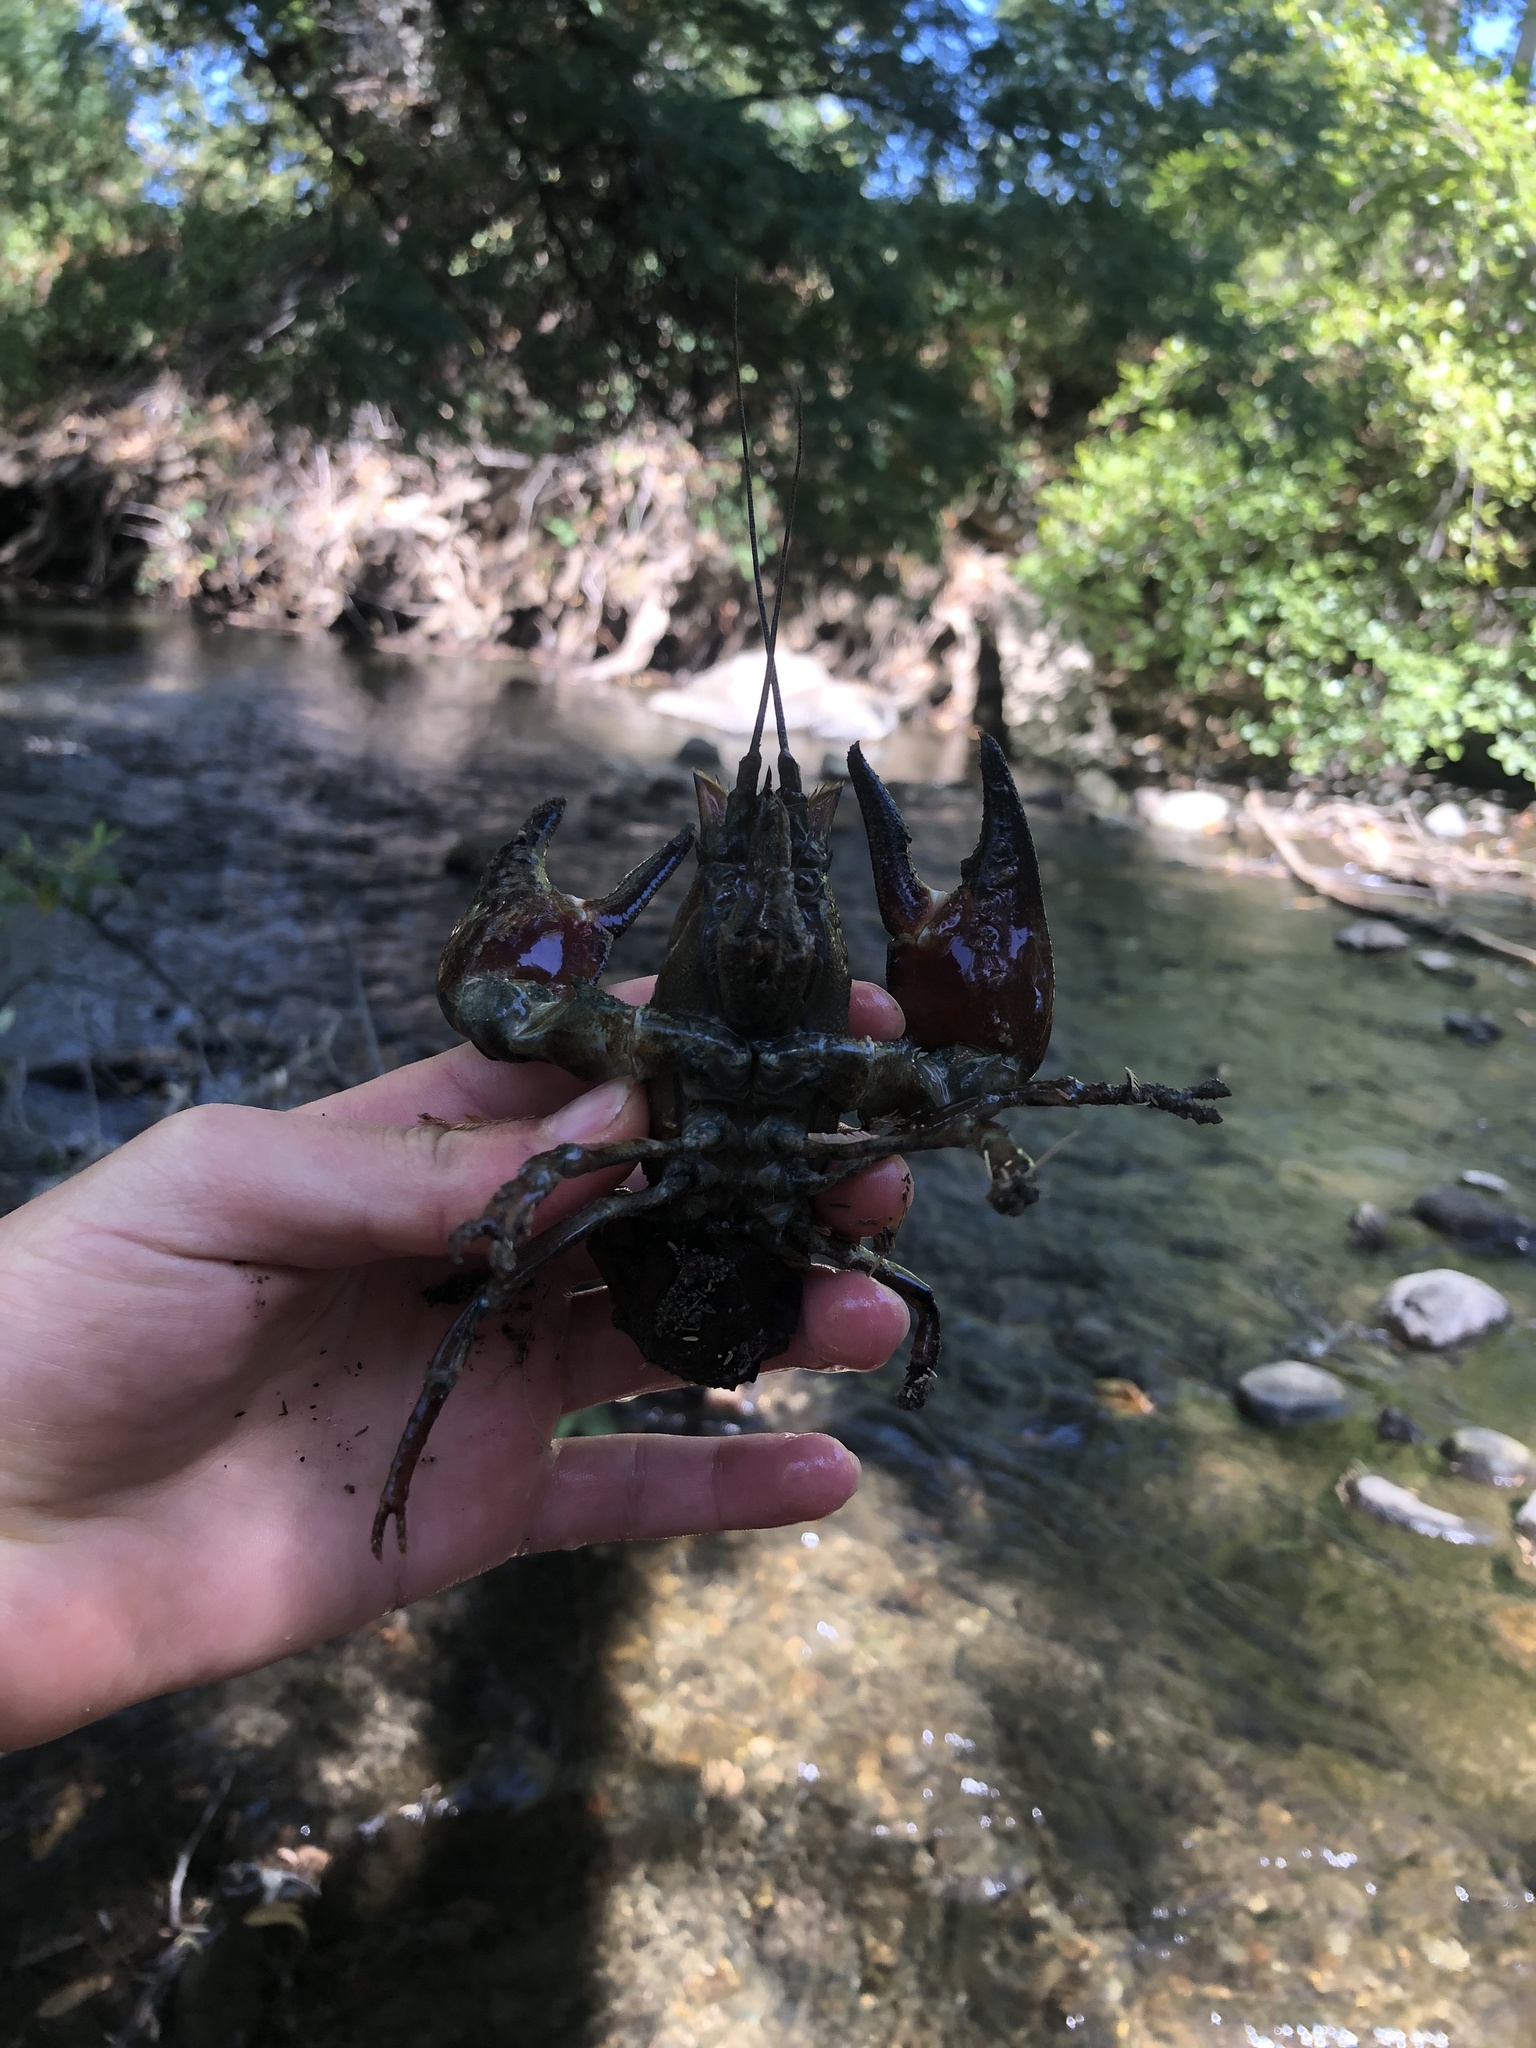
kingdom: Animalia
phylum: Arthropoda
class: Malacostraca
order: Decapoda
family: Astacidae
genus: Pacifastacus
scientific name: Pacifastacus leniusculus
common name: Signal crayfish
